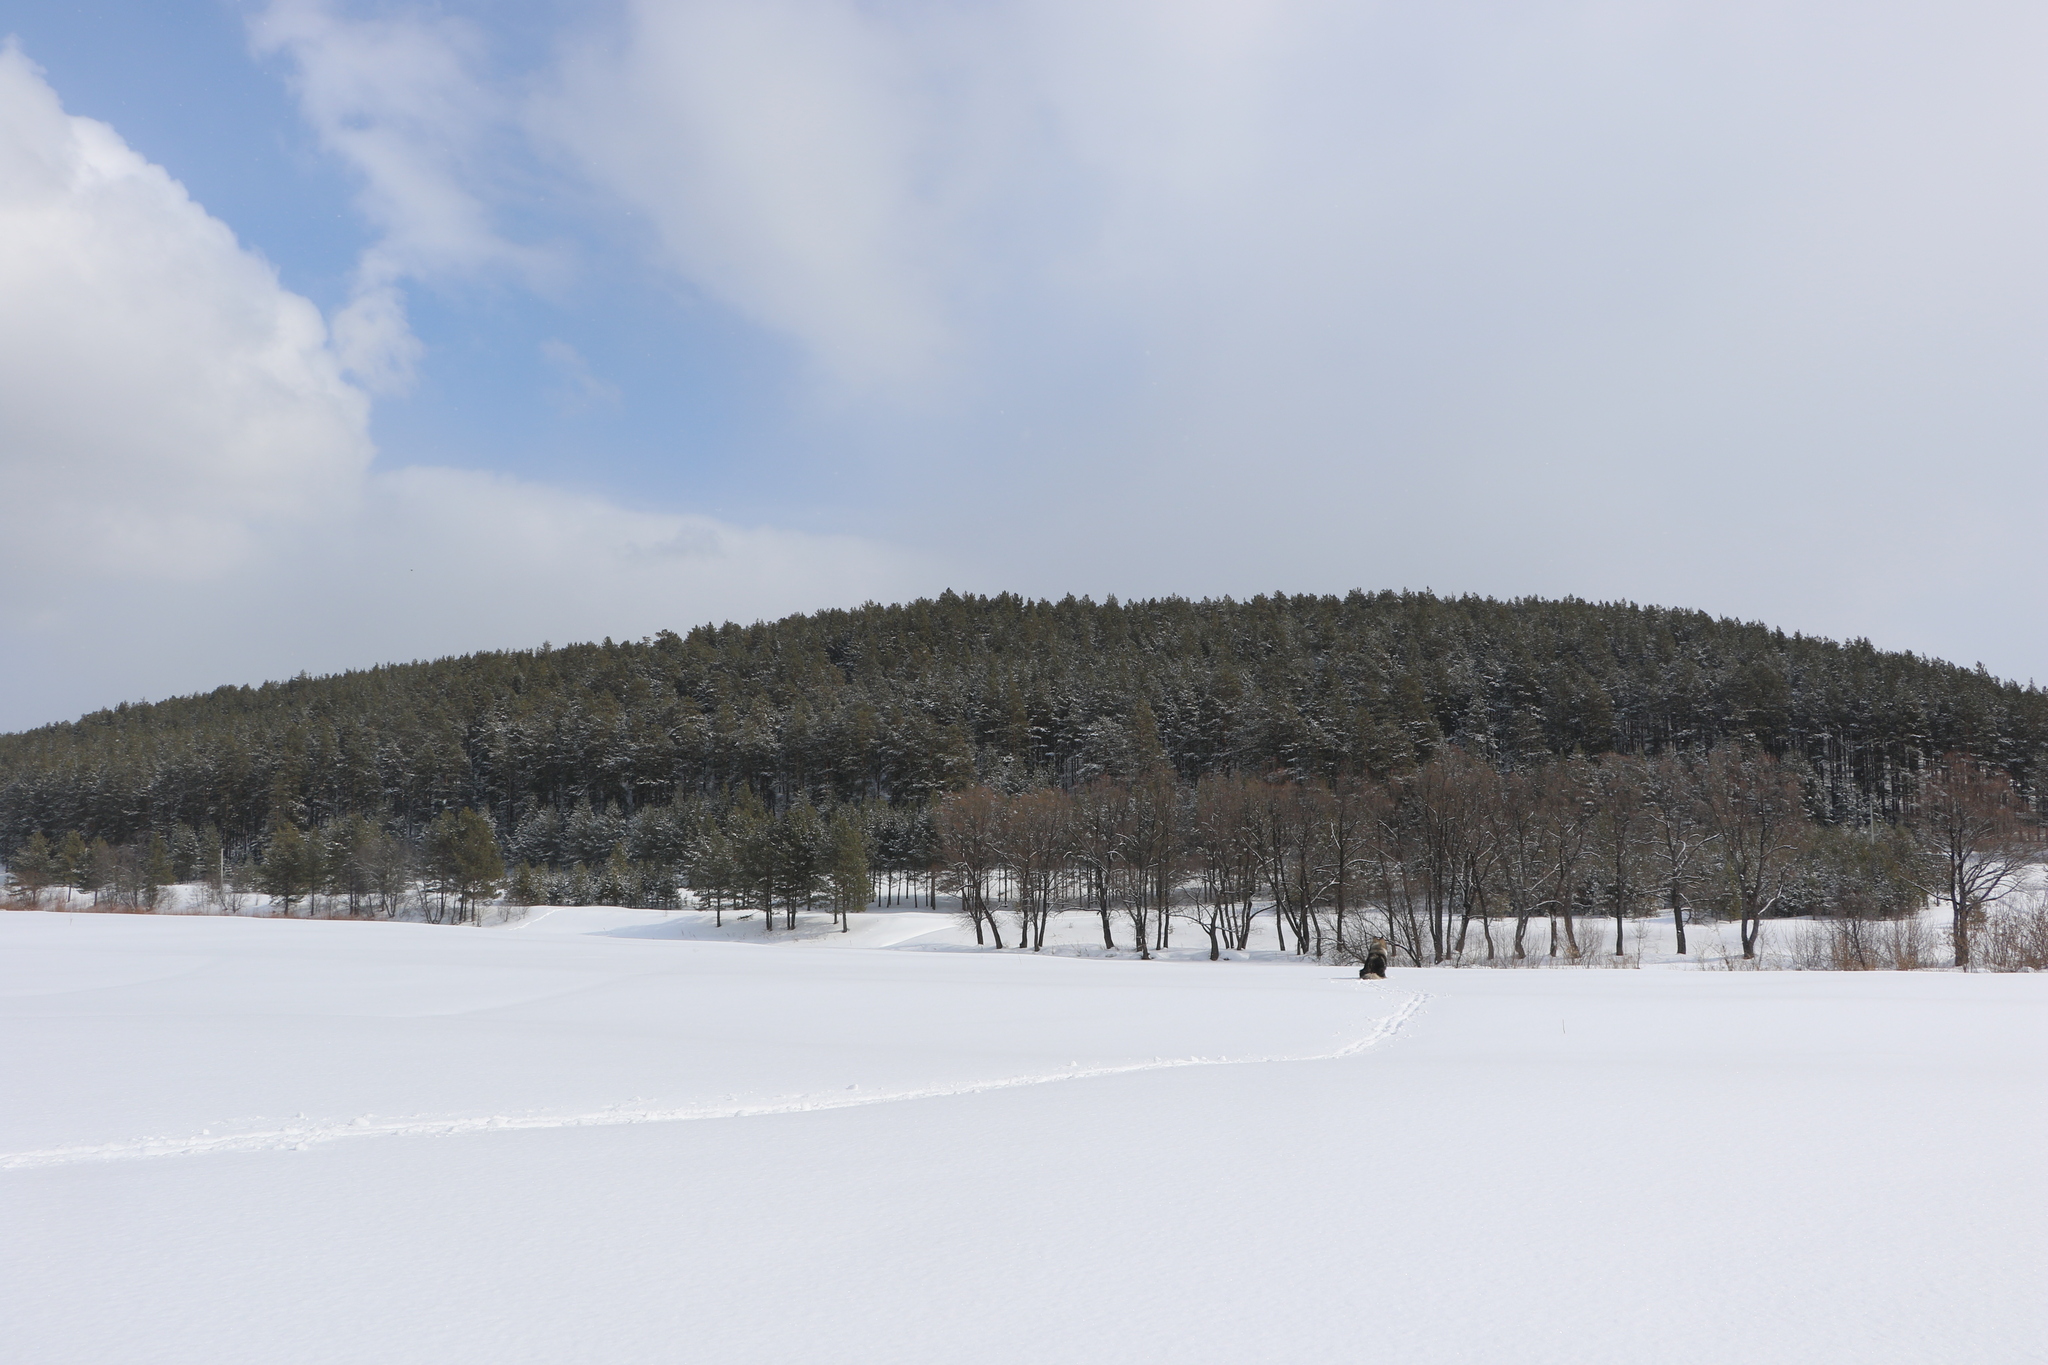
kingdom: Plantae
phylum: Tracheophyta
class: Pinopsida
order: Pinales
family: Pinaceae
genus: Pinus
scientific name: Pinus sylvestris
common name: Scots pine
